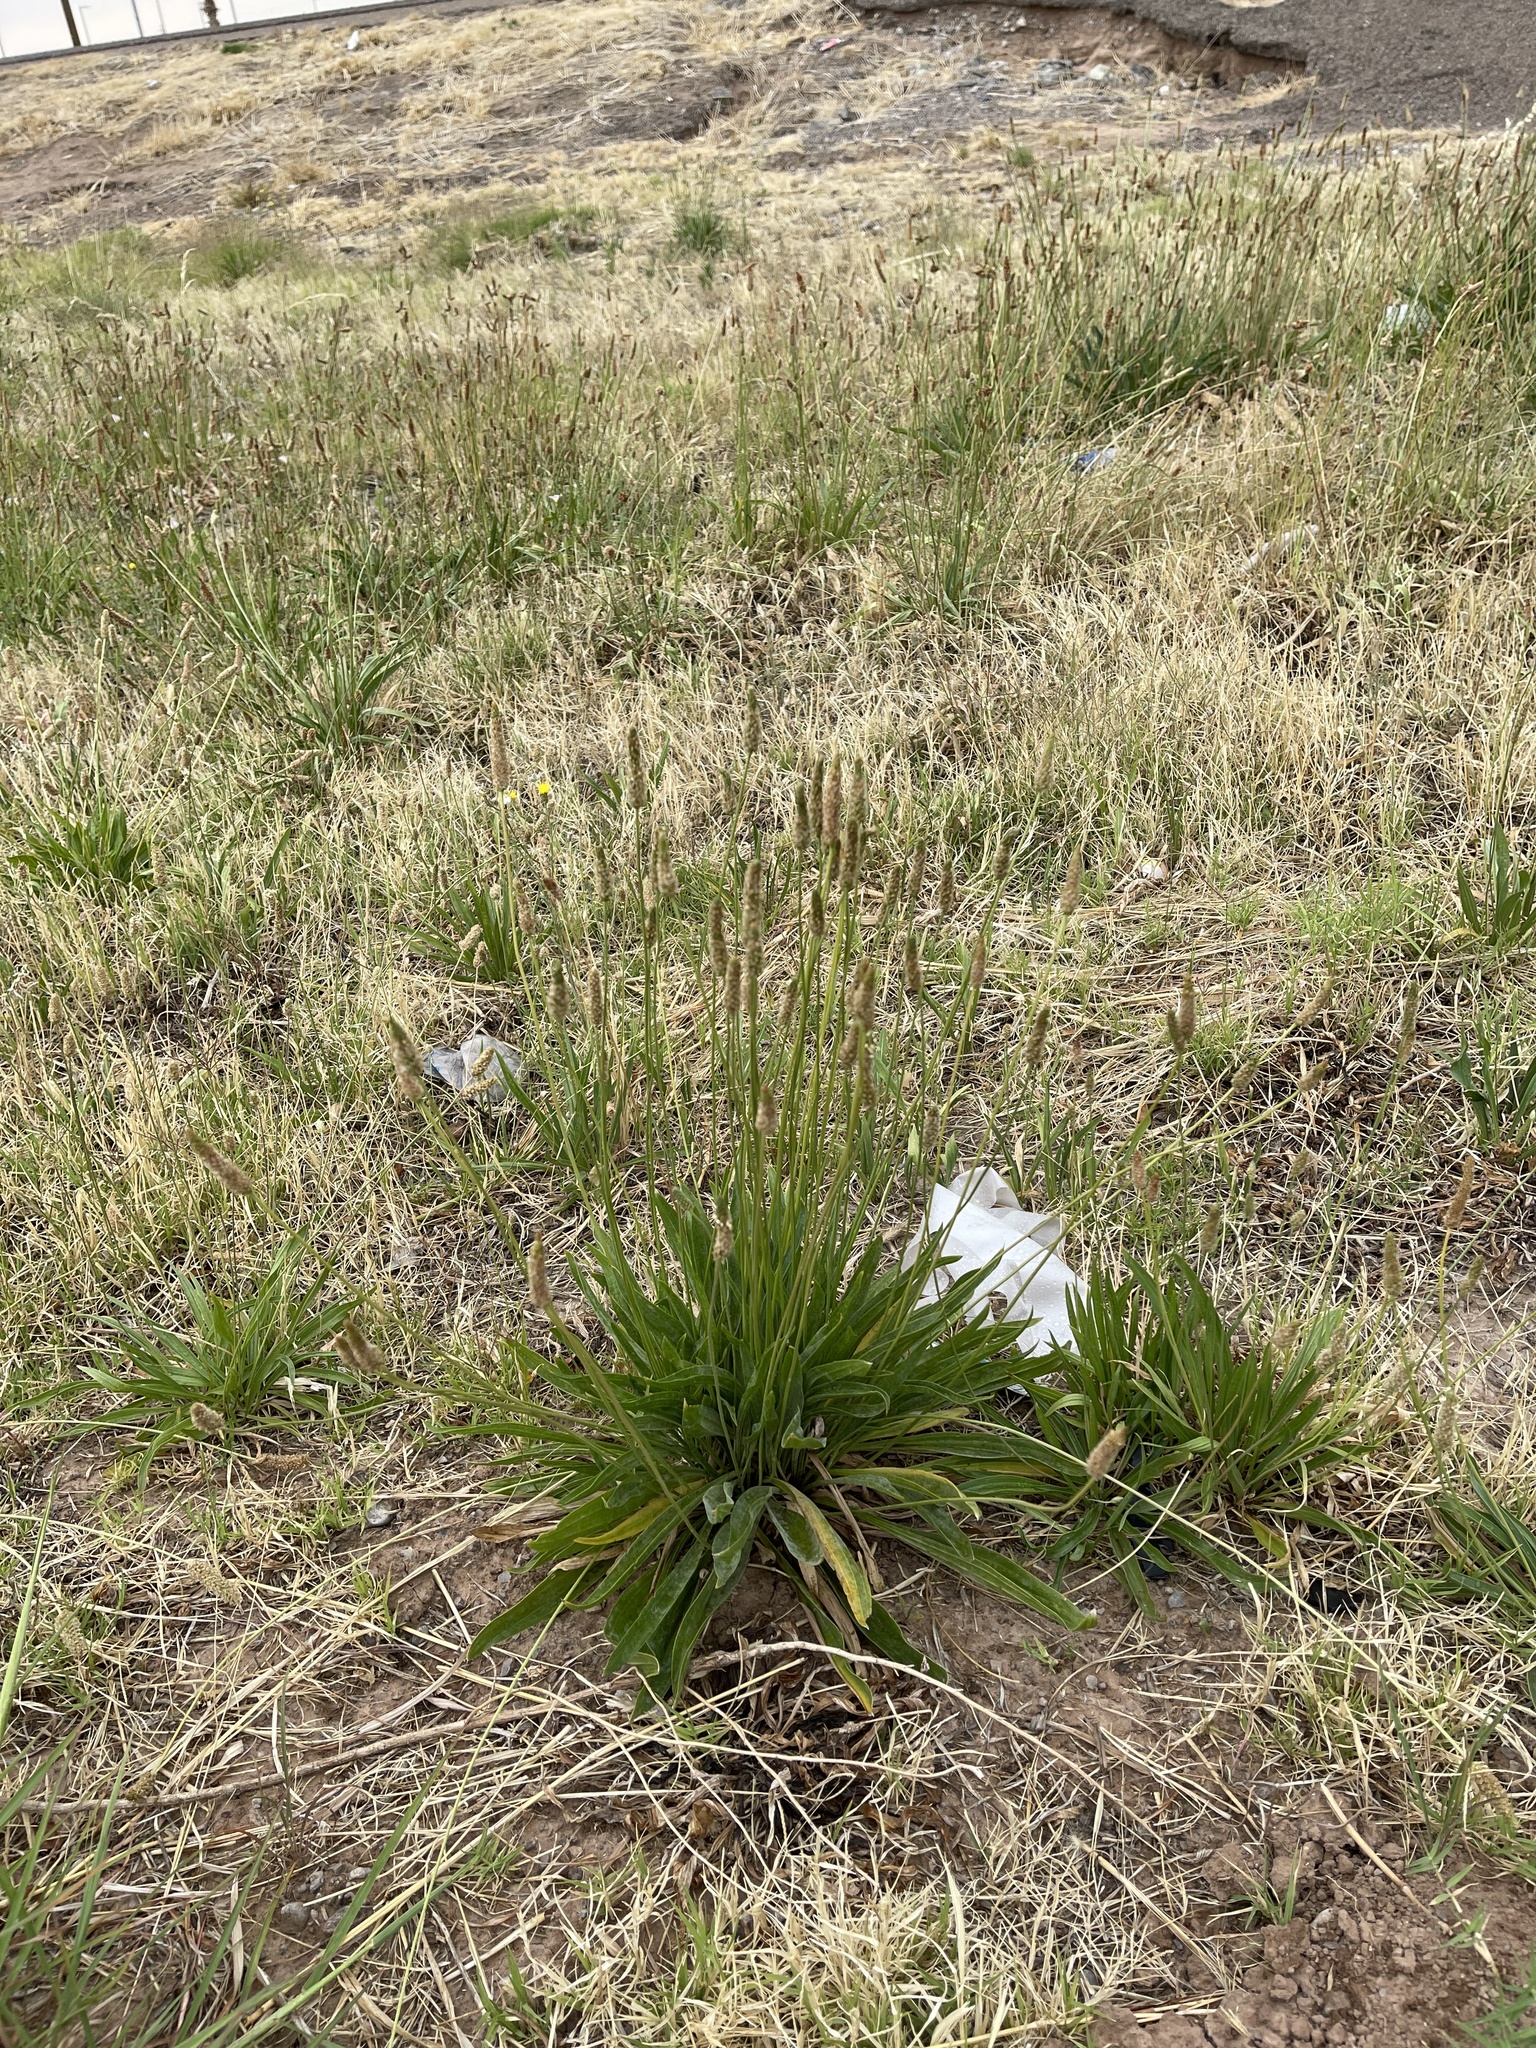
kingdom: Plantae
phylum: Tracheophyta
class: Magnoliopsida
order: Lamiales
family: Plantaginaceae
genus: Plantago
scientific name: Plantago lanceolata
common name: Ribwort plantain
